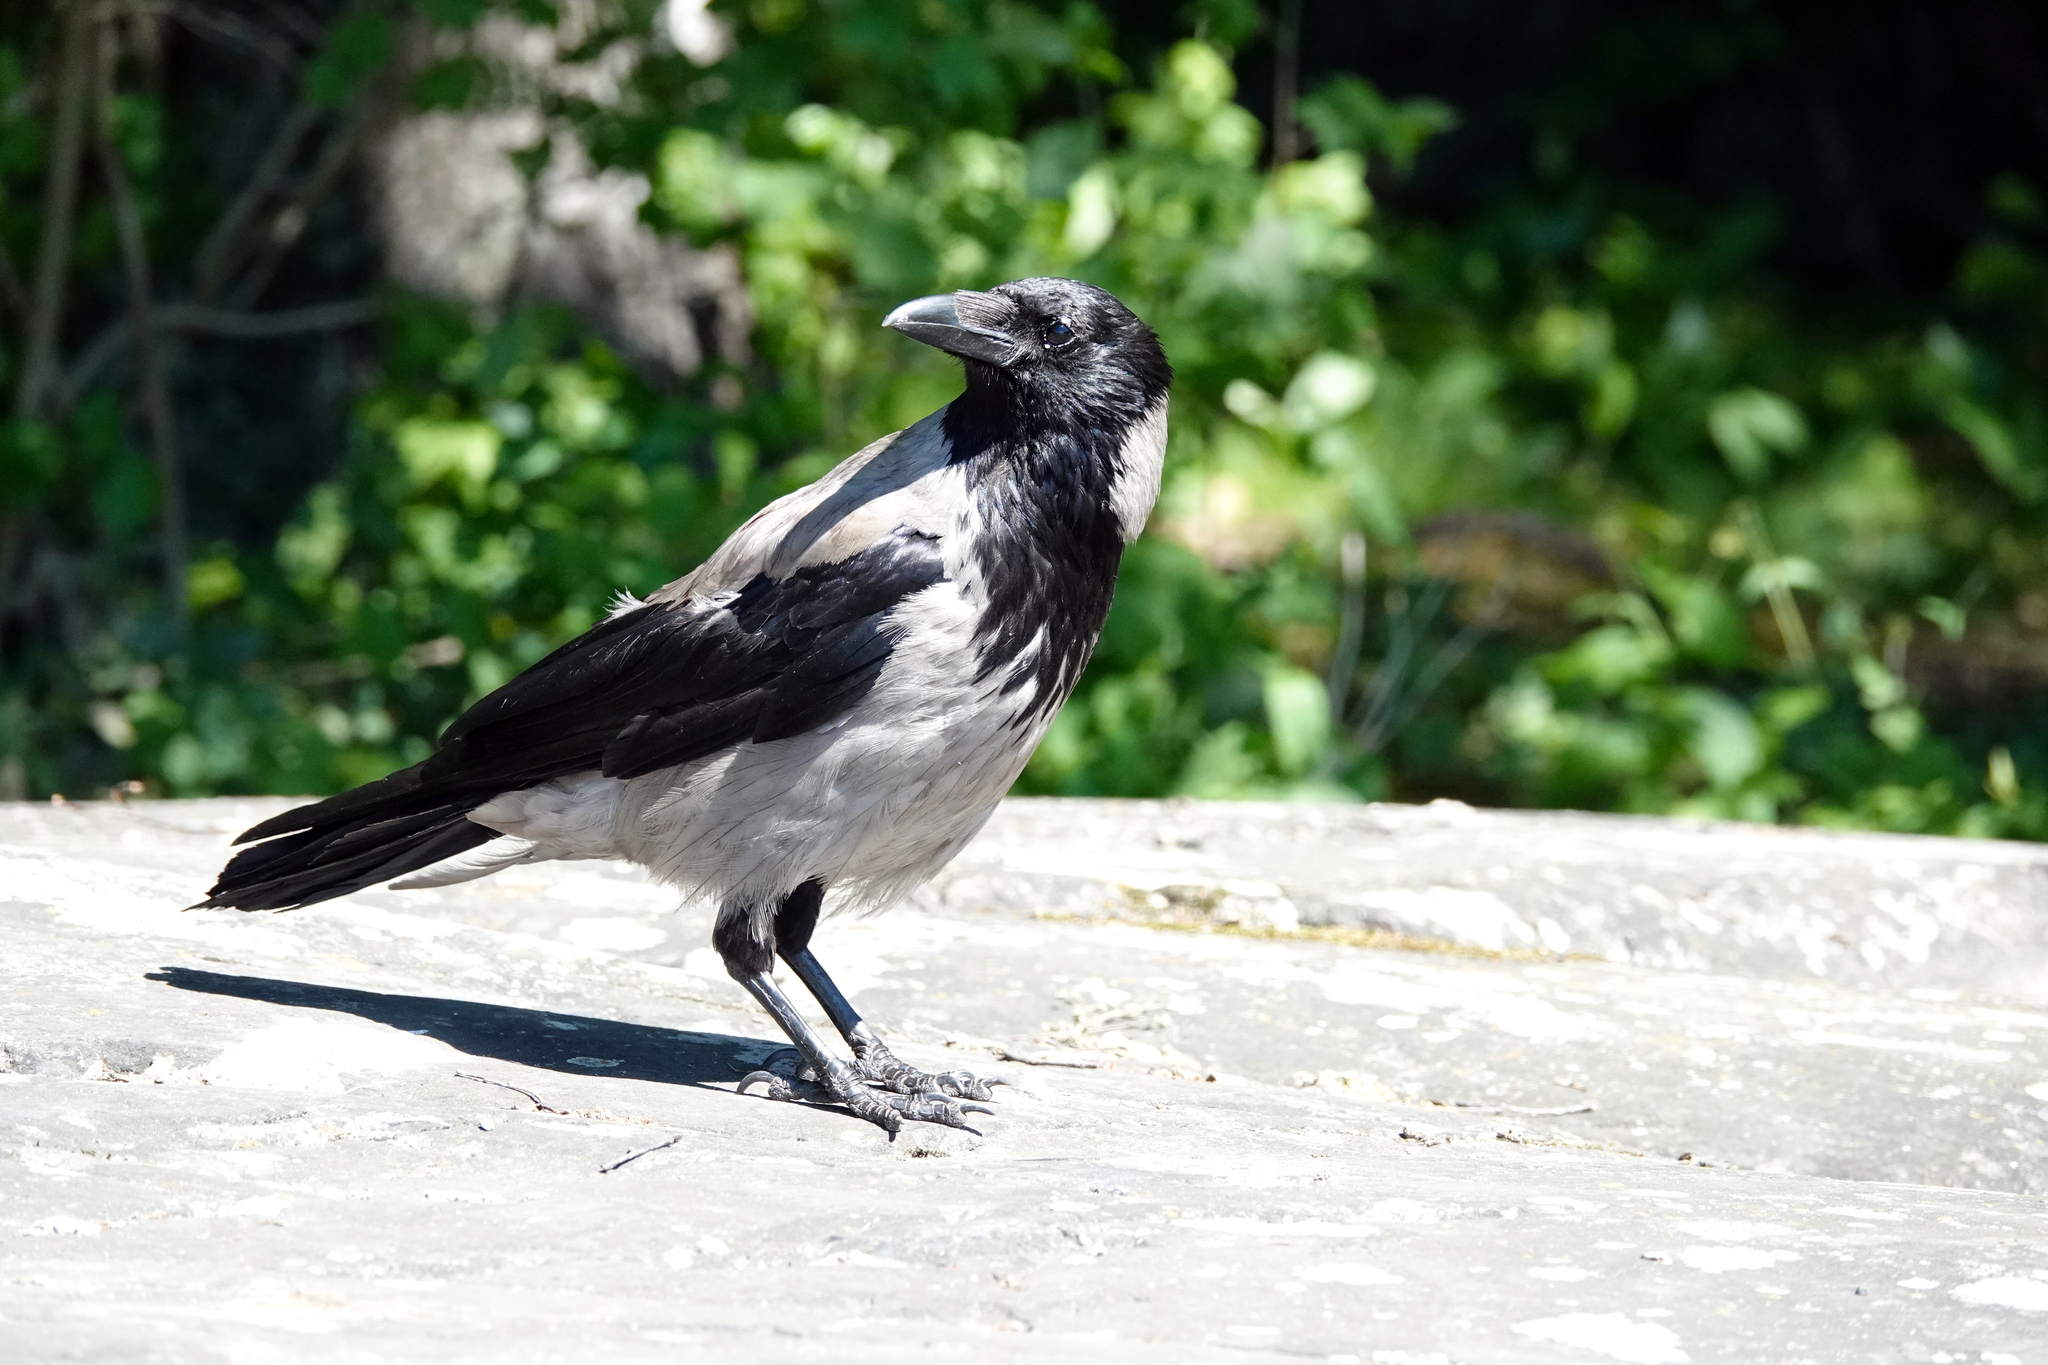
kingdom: Animalia
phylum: Chordata
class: Aves
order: Passeriformes
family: Corvidae
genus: Corvus
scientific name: Corvus cornix
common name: Hooded crow
